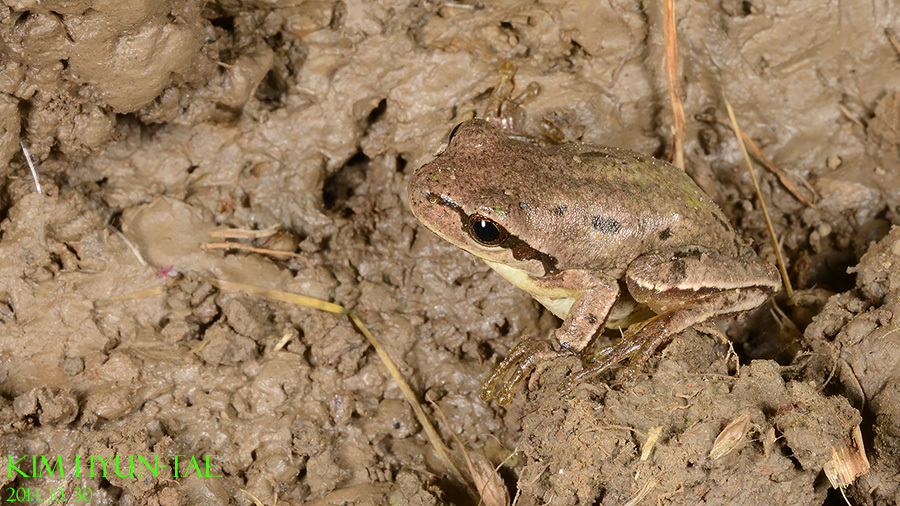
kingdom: Animalia
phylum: Chordata
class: Amphibia
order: Anura
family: Hylidae
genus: Dryophytes
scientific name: Dryophytes immaculatus
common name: North china treefrog
